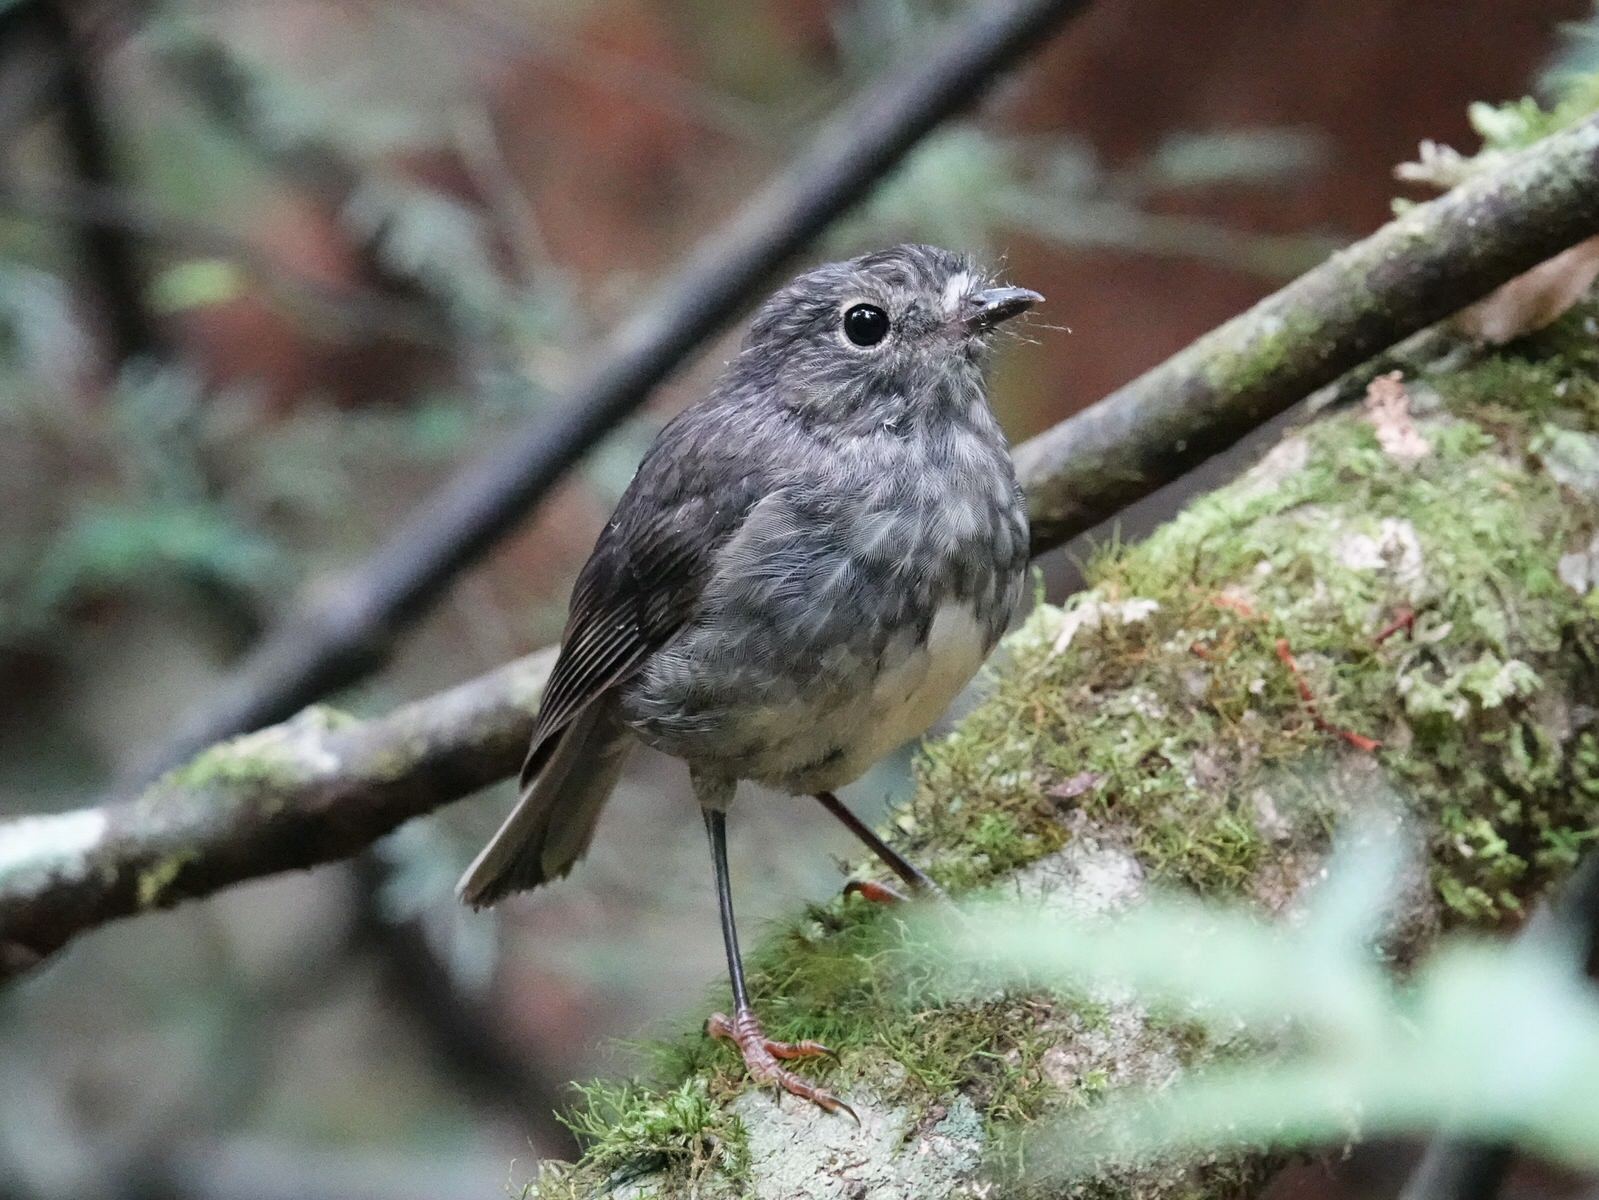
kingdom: Animalia
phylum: Chordata
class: Aves
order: Passeriformes
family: Petroicidae
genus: Petroica
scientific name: Petroica australis
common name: New zealand robin
